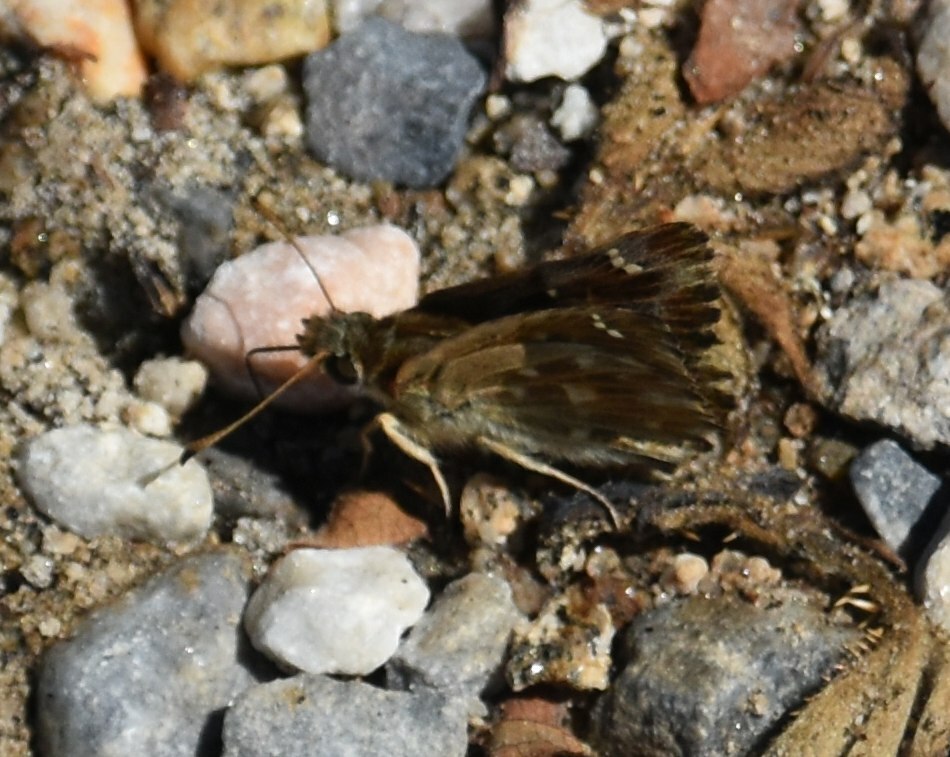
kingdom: Animalia
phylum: Arthropoda
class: Insecta
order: Lepidoptera
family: Hesperiidae
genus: Carcharodus
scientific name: Carcharodus alceae
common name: Mallow skipper
